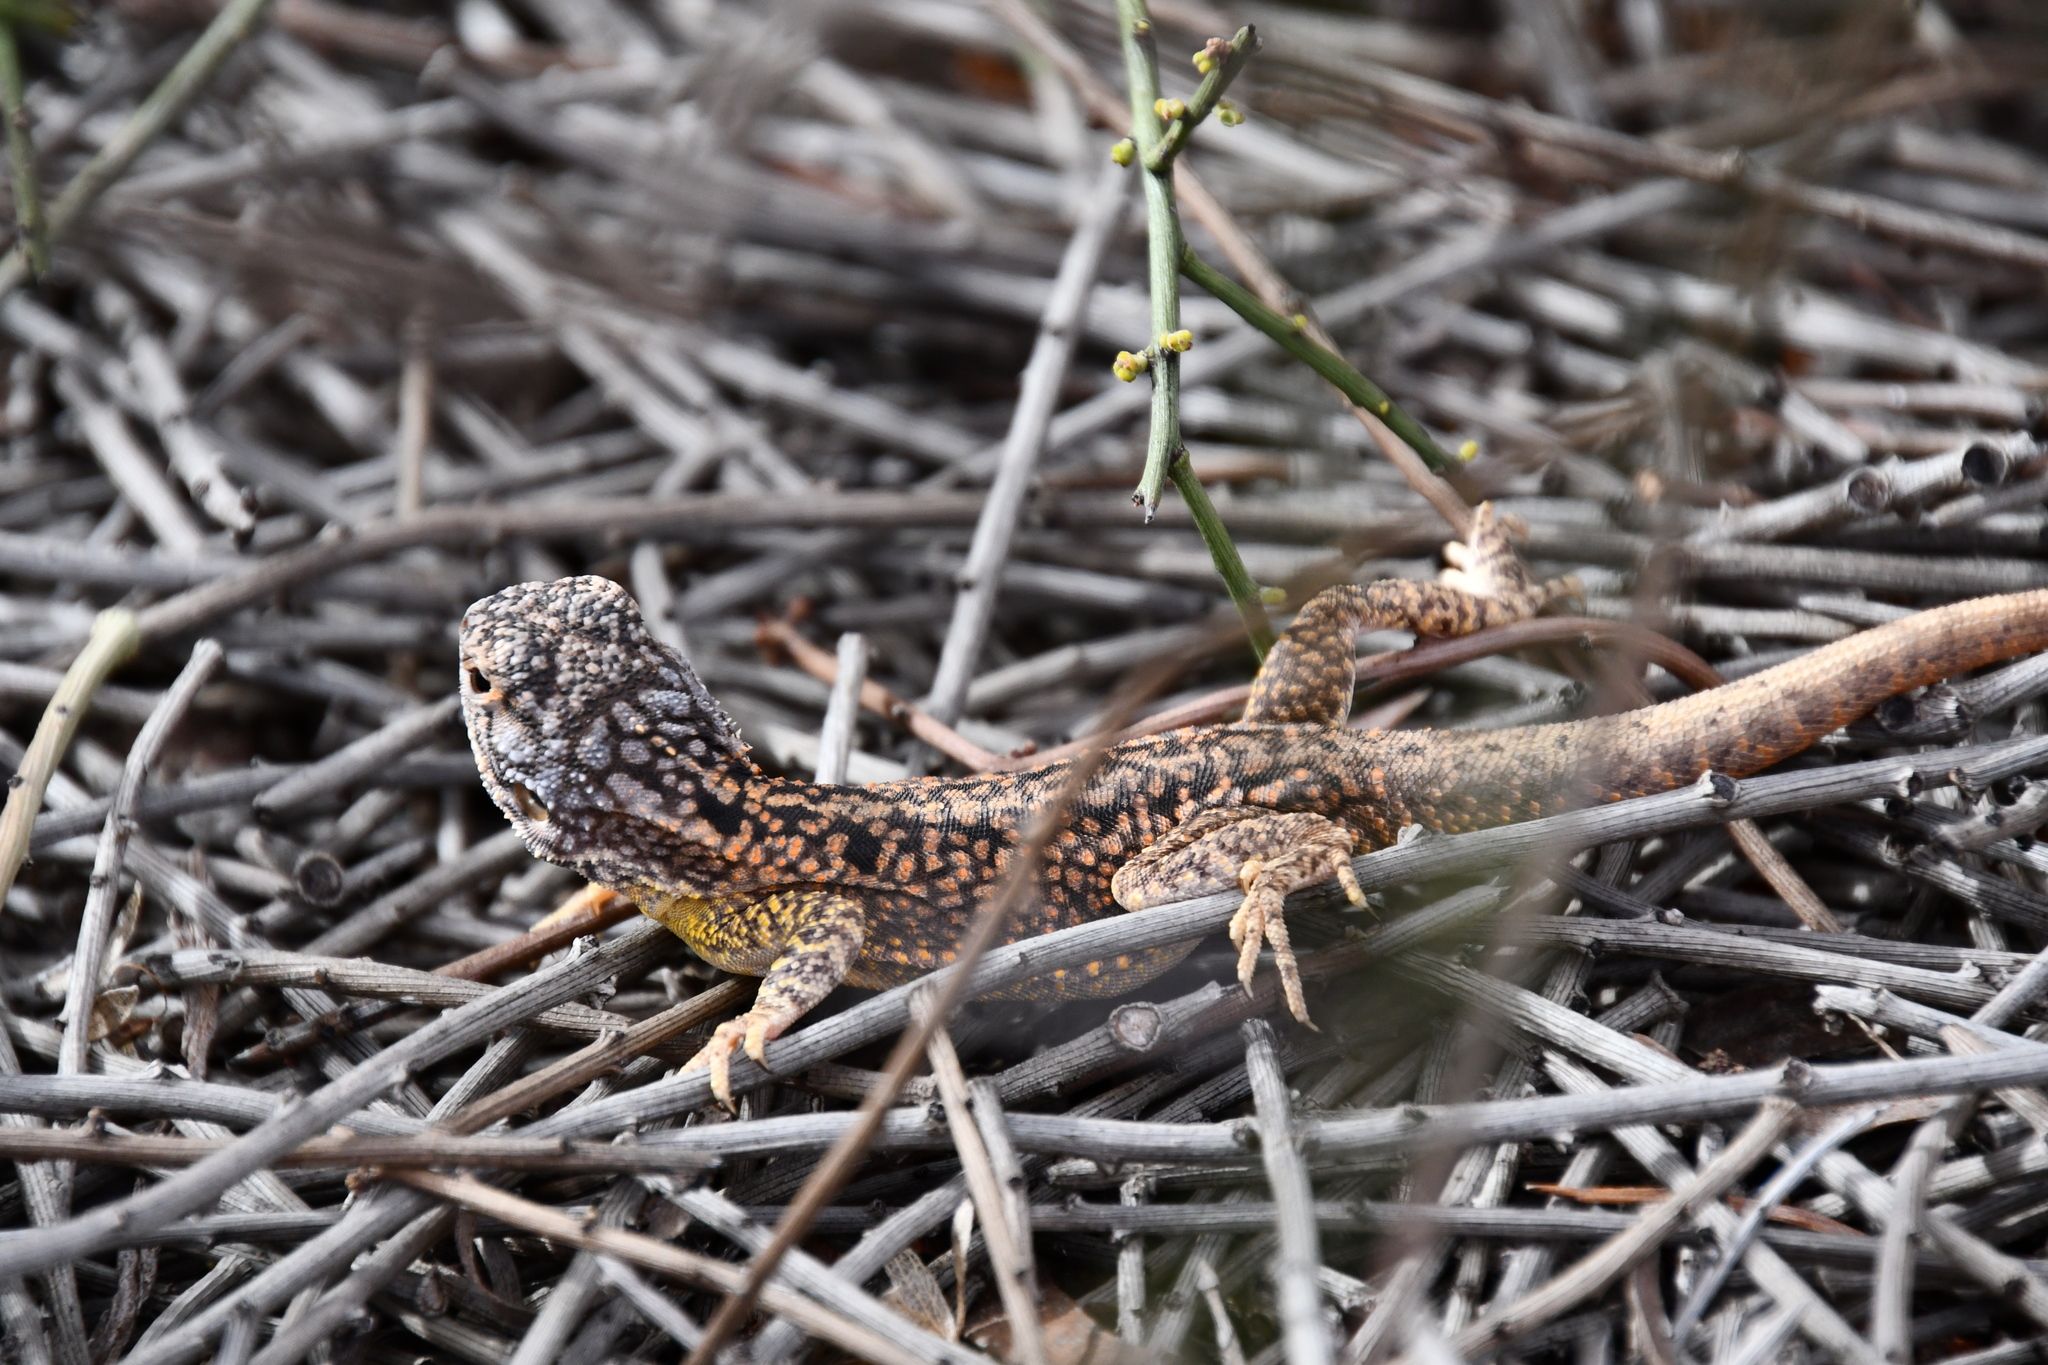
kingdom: Animalia
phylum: Chordata
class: Squamata
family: Agamidae
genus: Ctenophorus
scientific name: Ctenophorus reticulatus
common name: Western netted dragon
